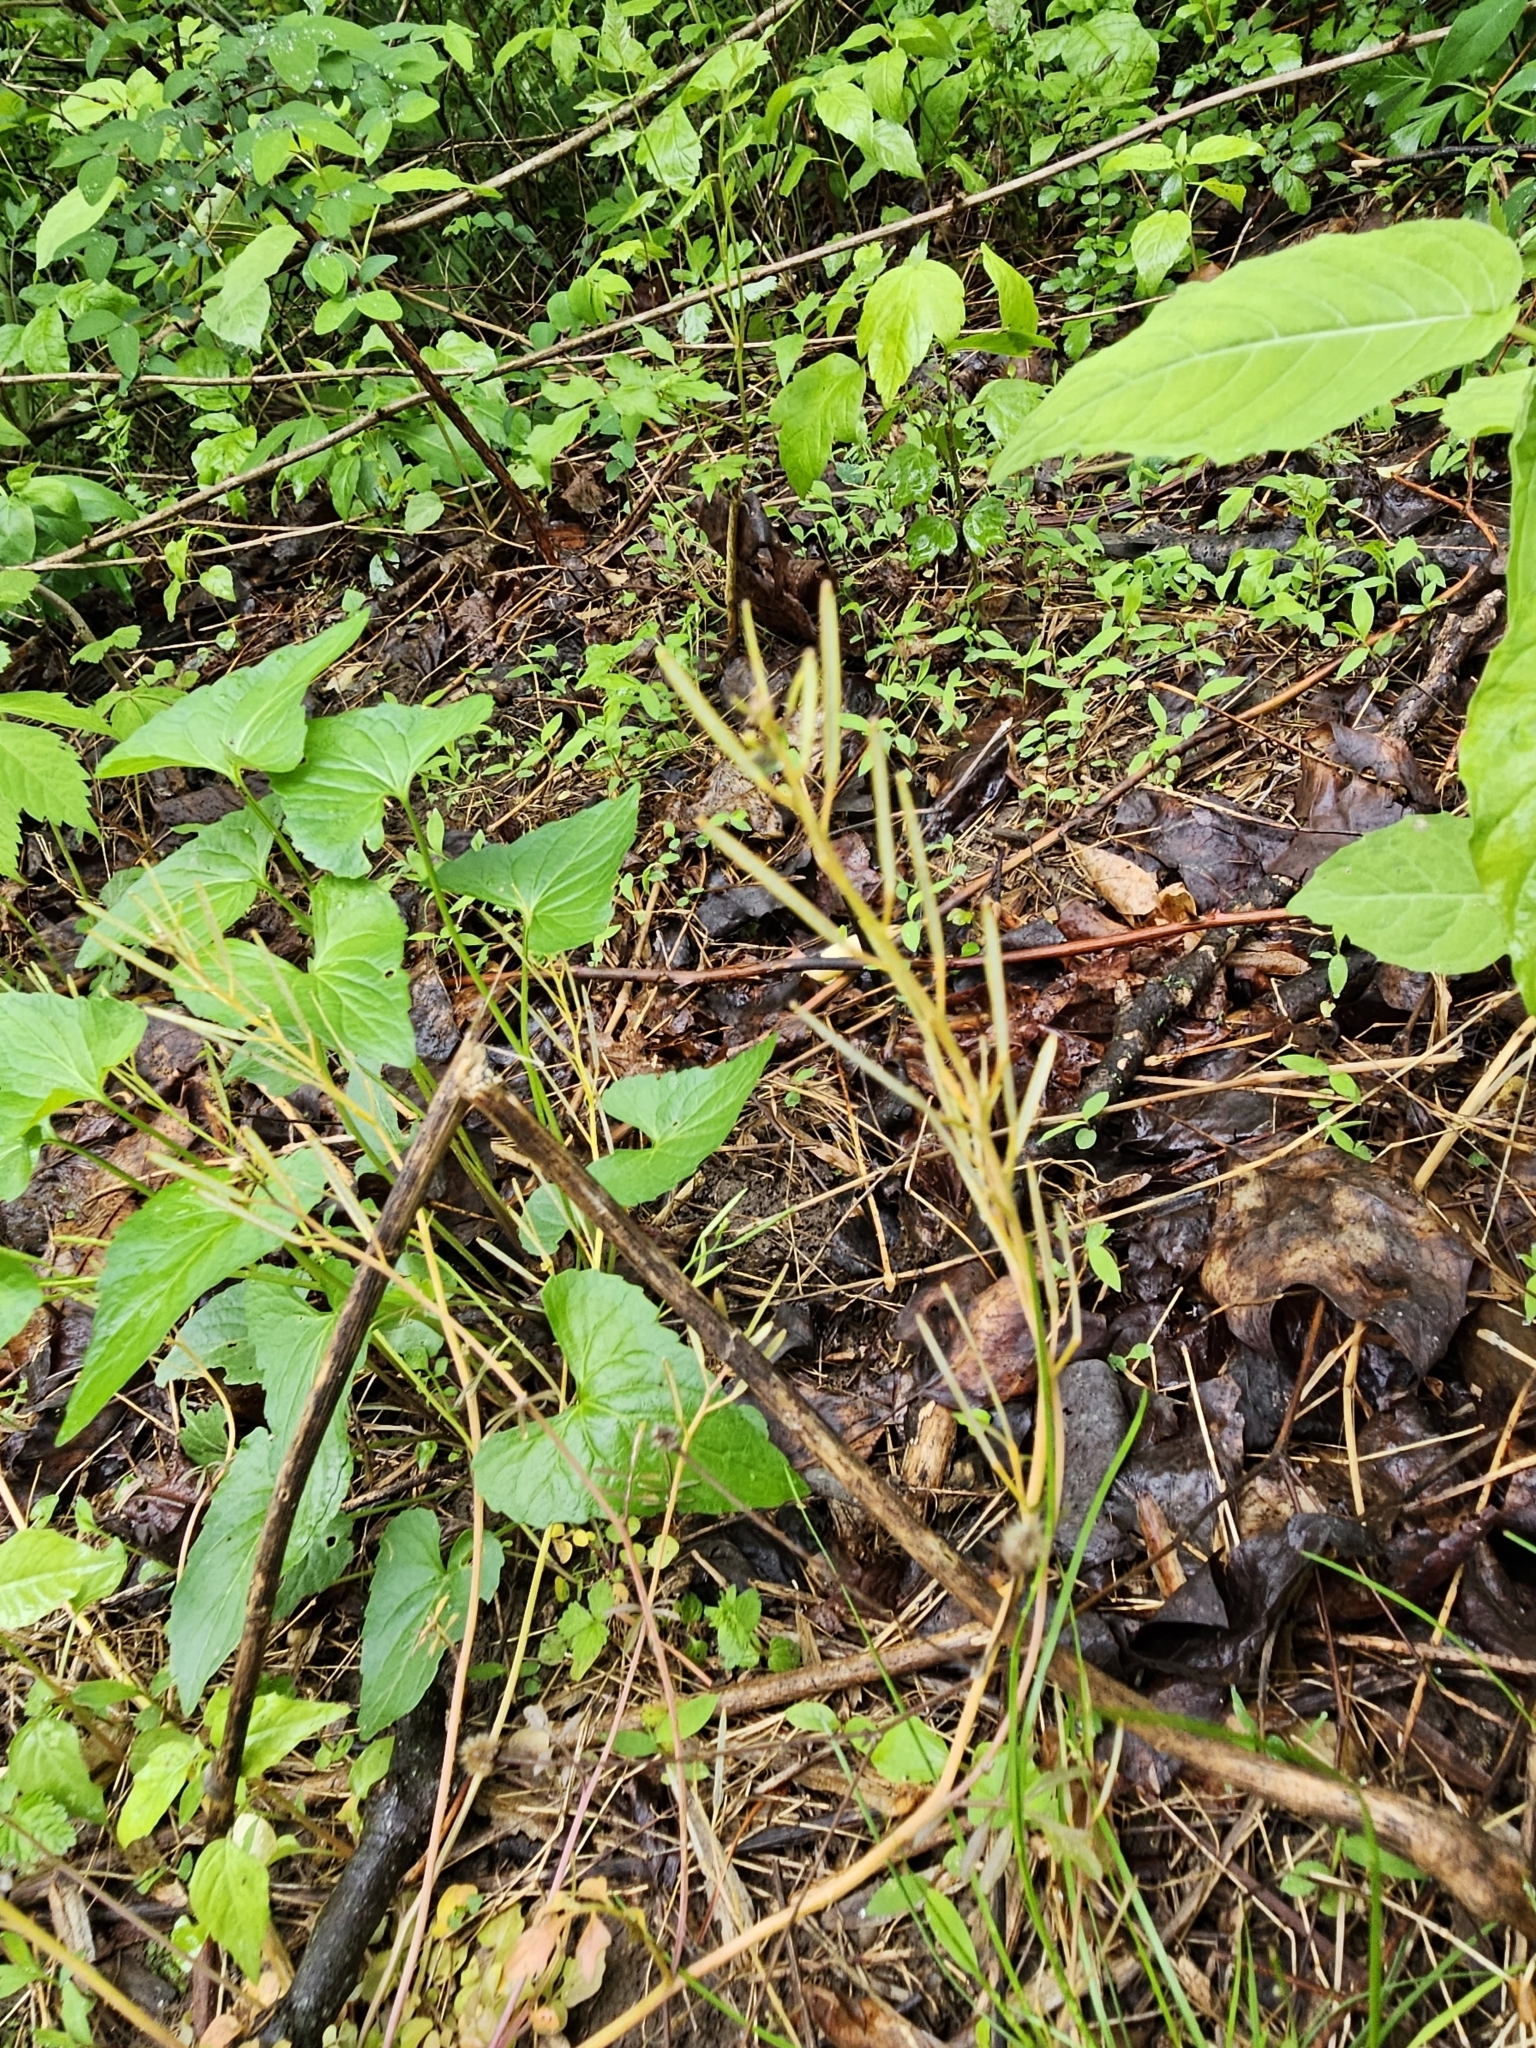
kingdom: Plantae
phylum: Tracheophyta
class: Magnoliopsida
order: Brassicales
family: Brassicaceae
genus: Cardamine
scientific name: Cardamine hirsuta
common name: Hairy bittercress
